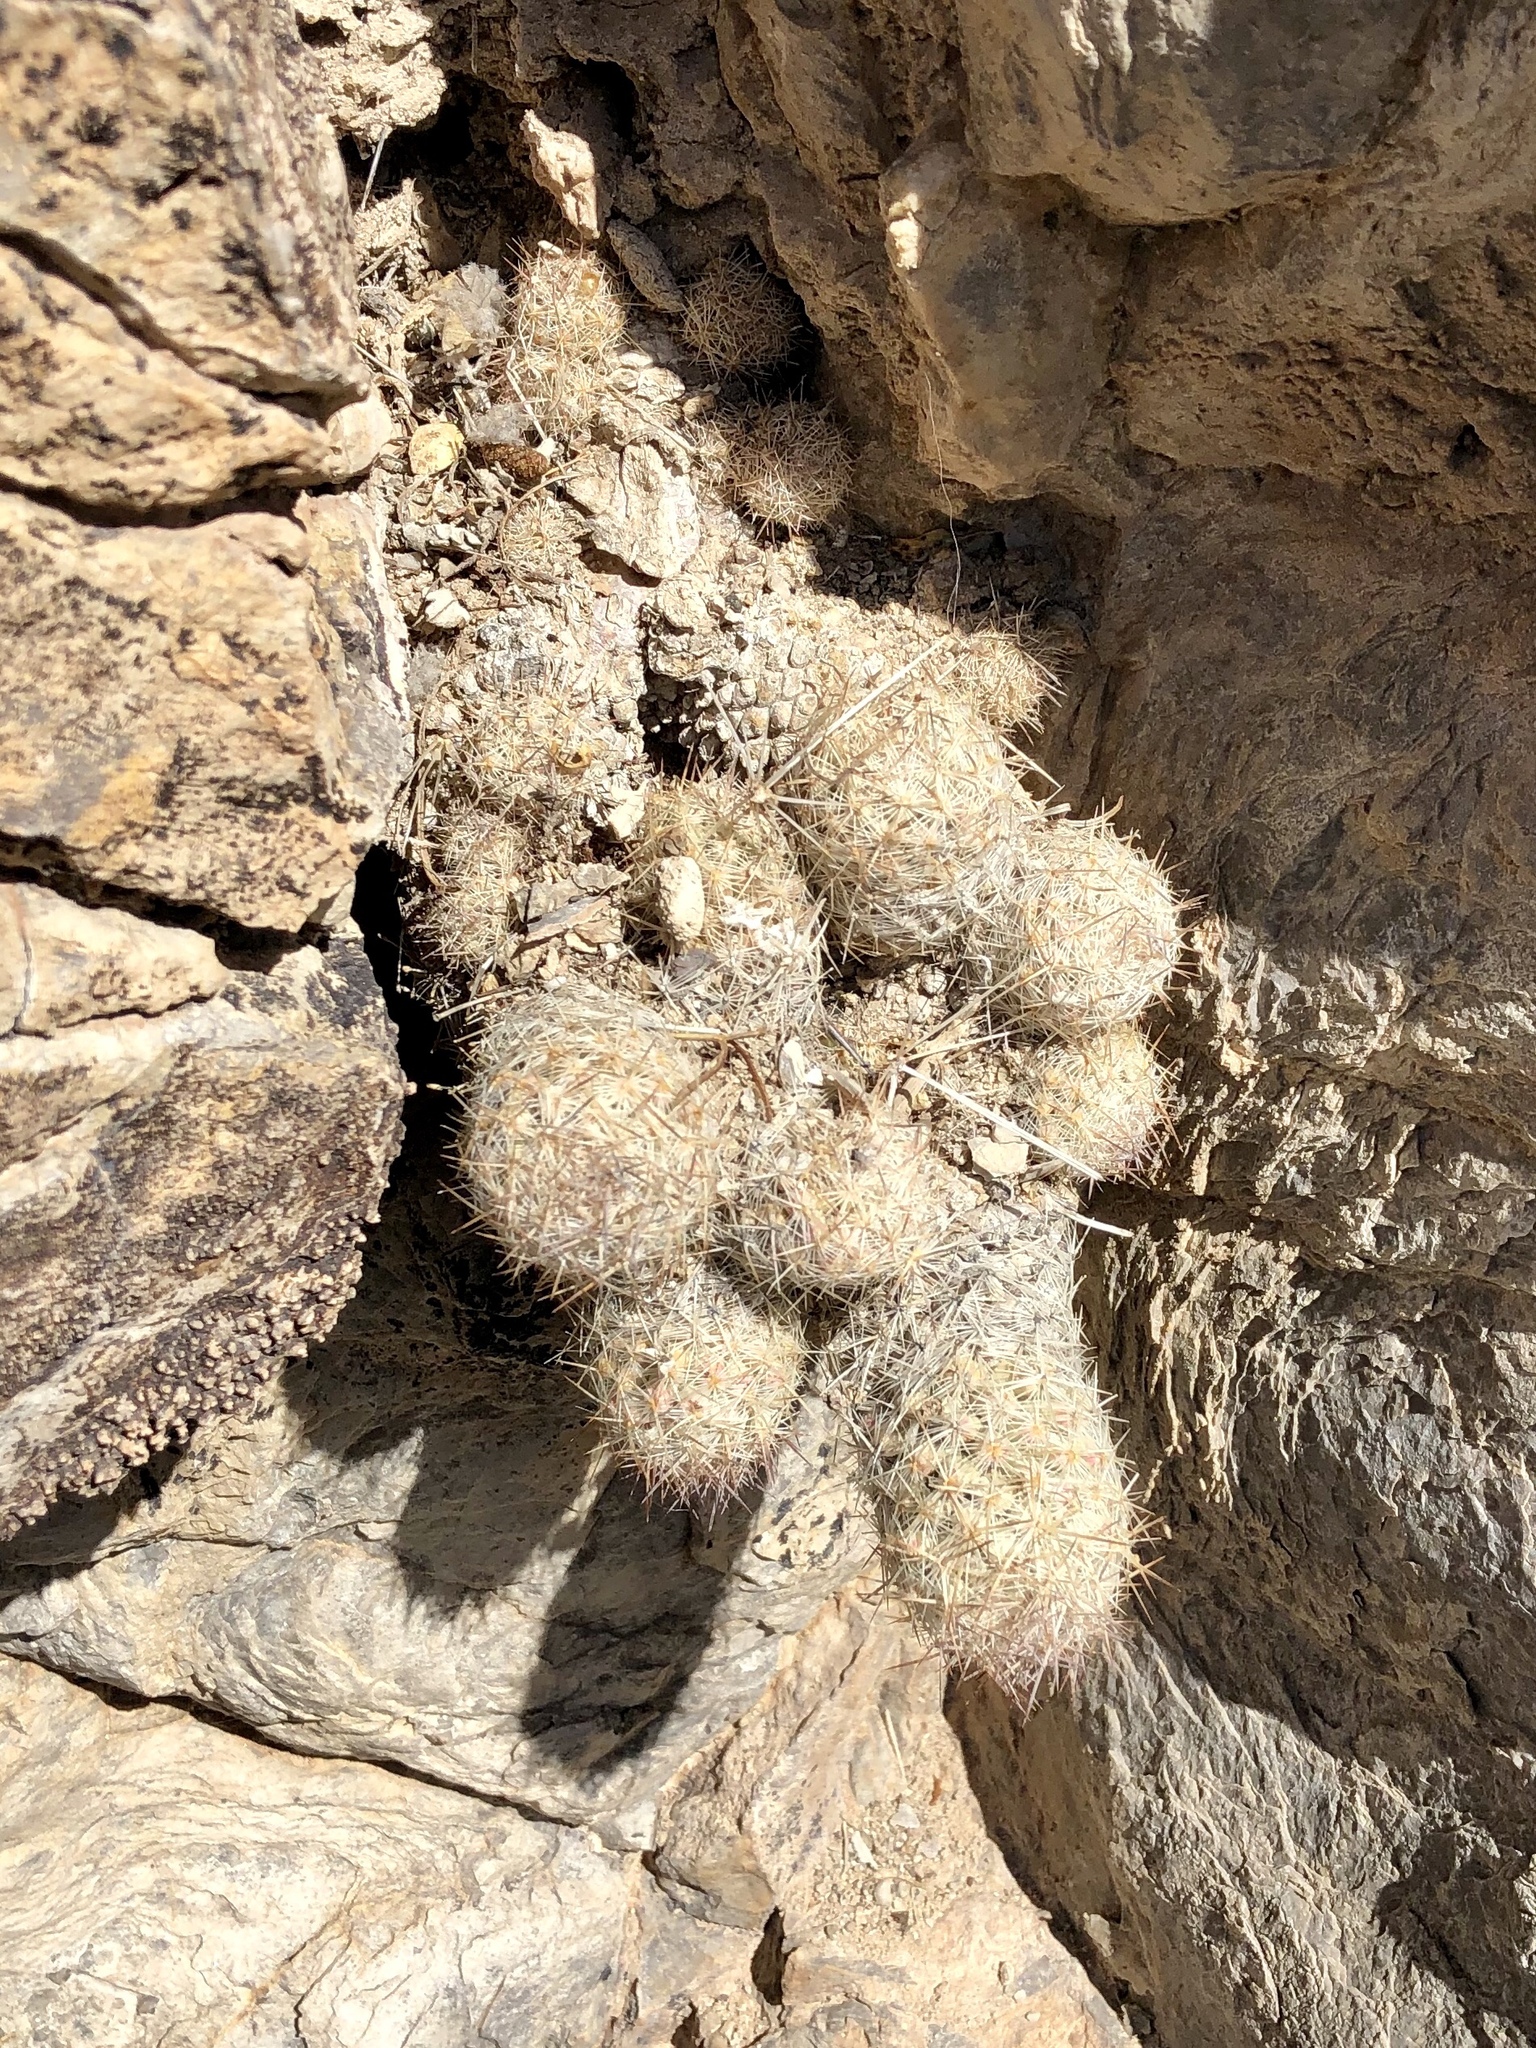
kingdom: Plantae
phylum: Tracheophyta
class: Magnoliopsida
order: Caryophyllales
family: Cactaceae
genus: Pelecyphora
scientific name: Pelecyphora tuberculosa
